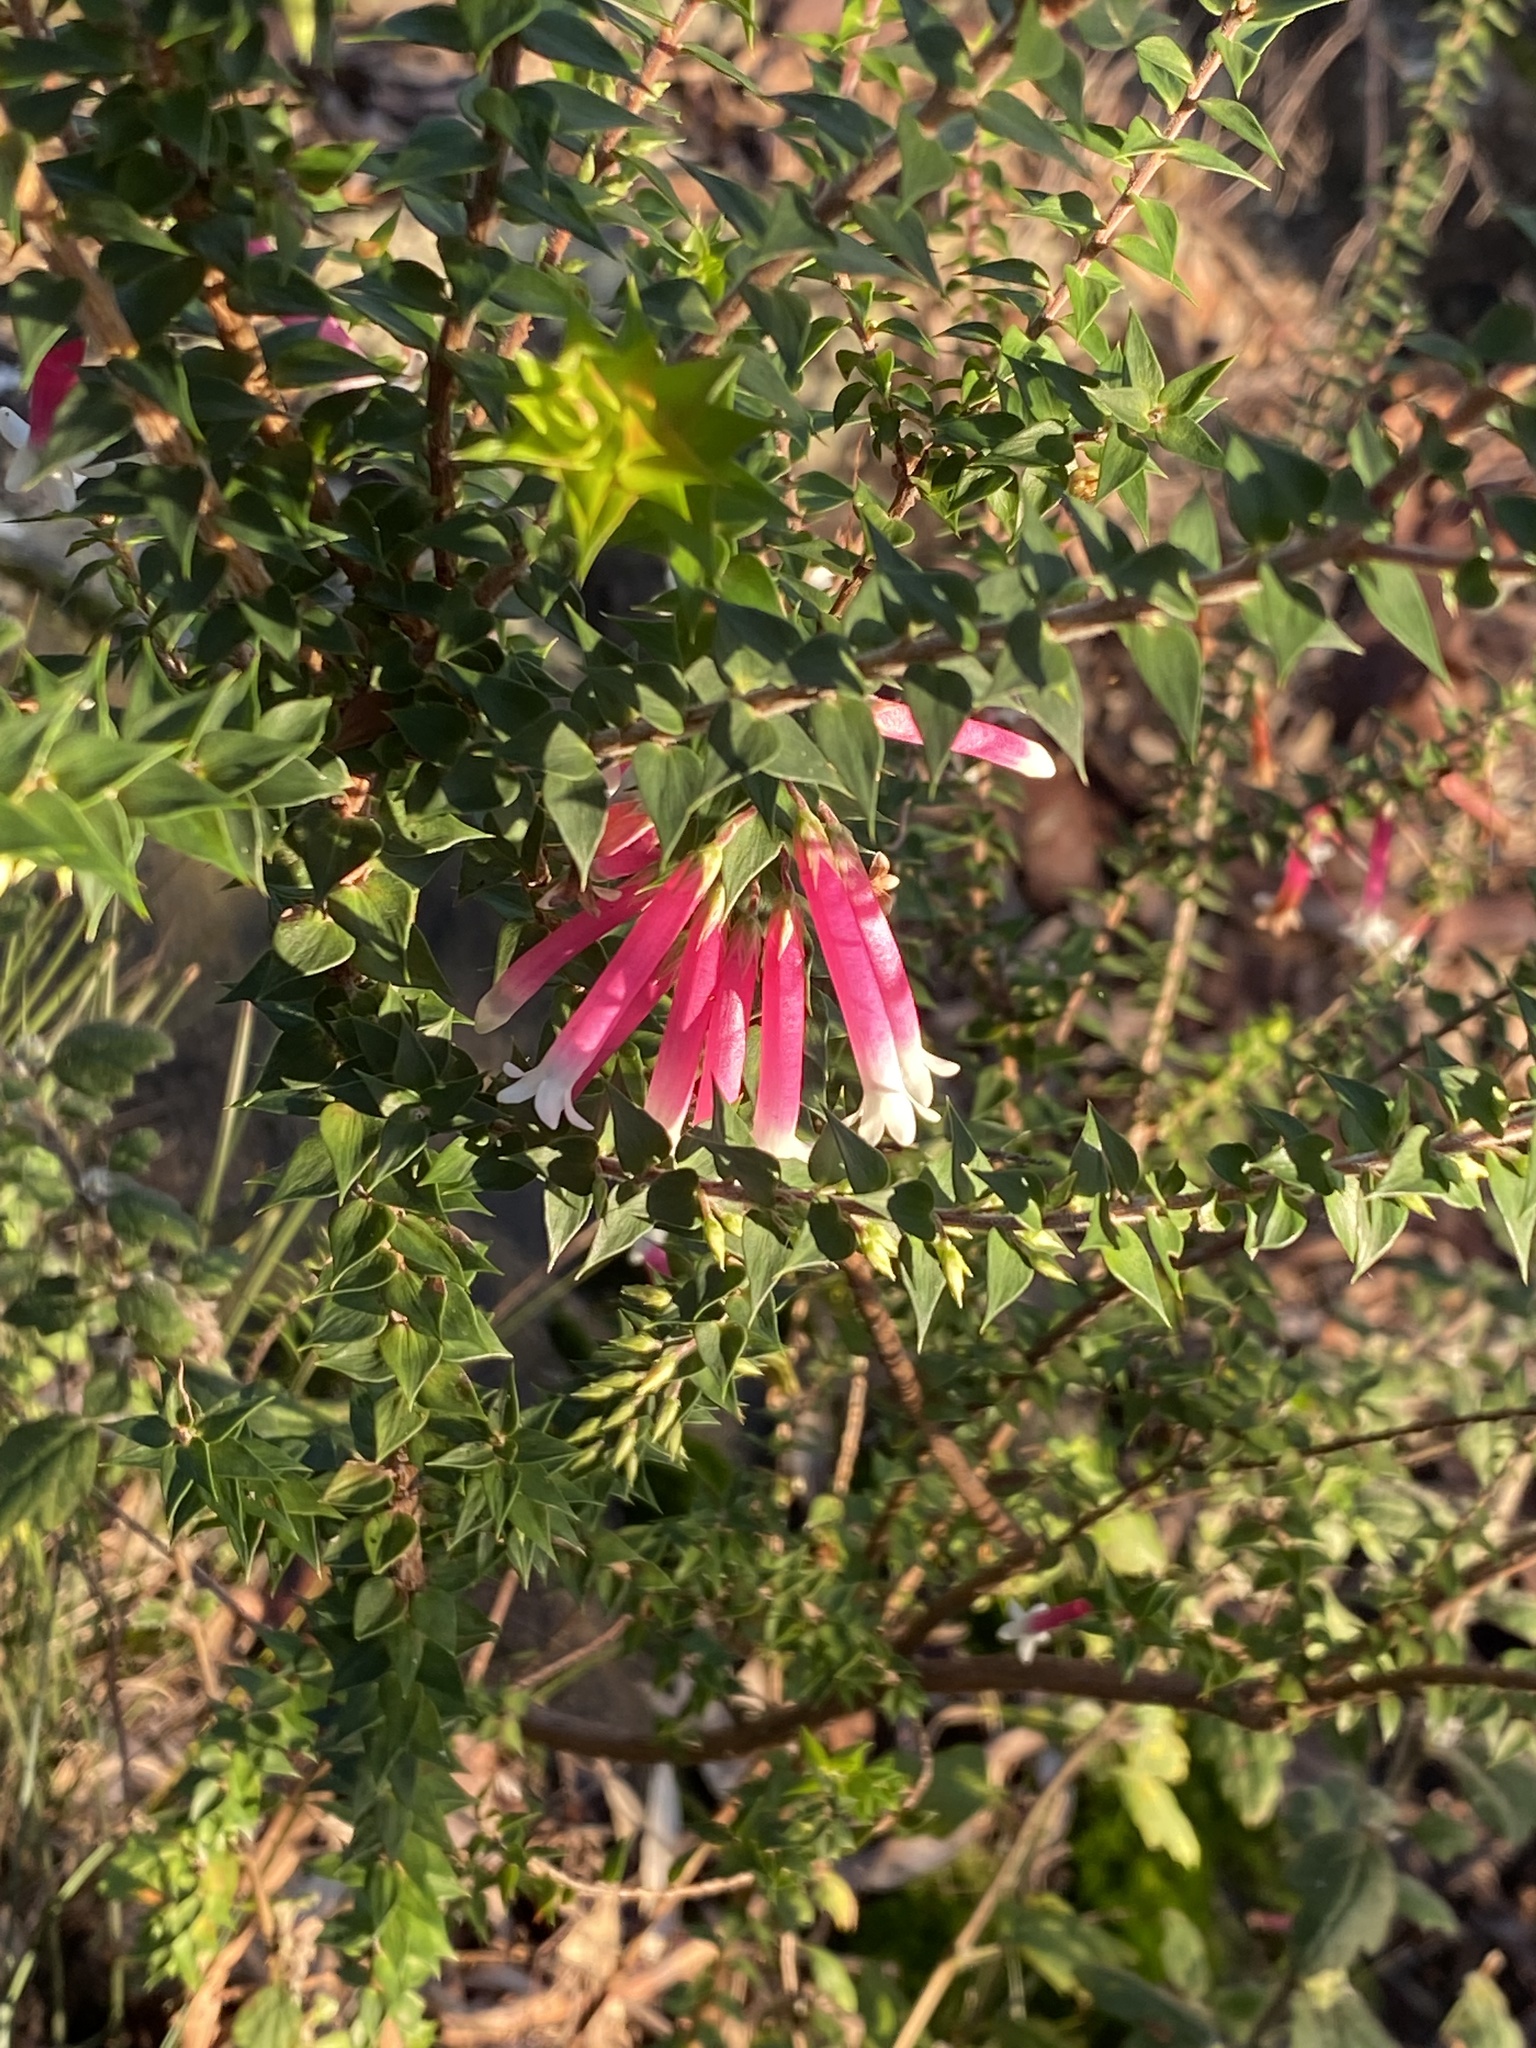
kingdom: Plantae
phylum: Tracheophyta
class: Magnoliopsida
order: Ericales
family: Ericaceae
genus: Epacris
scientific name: Epacris longiflora
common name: Fuchsia-heath
